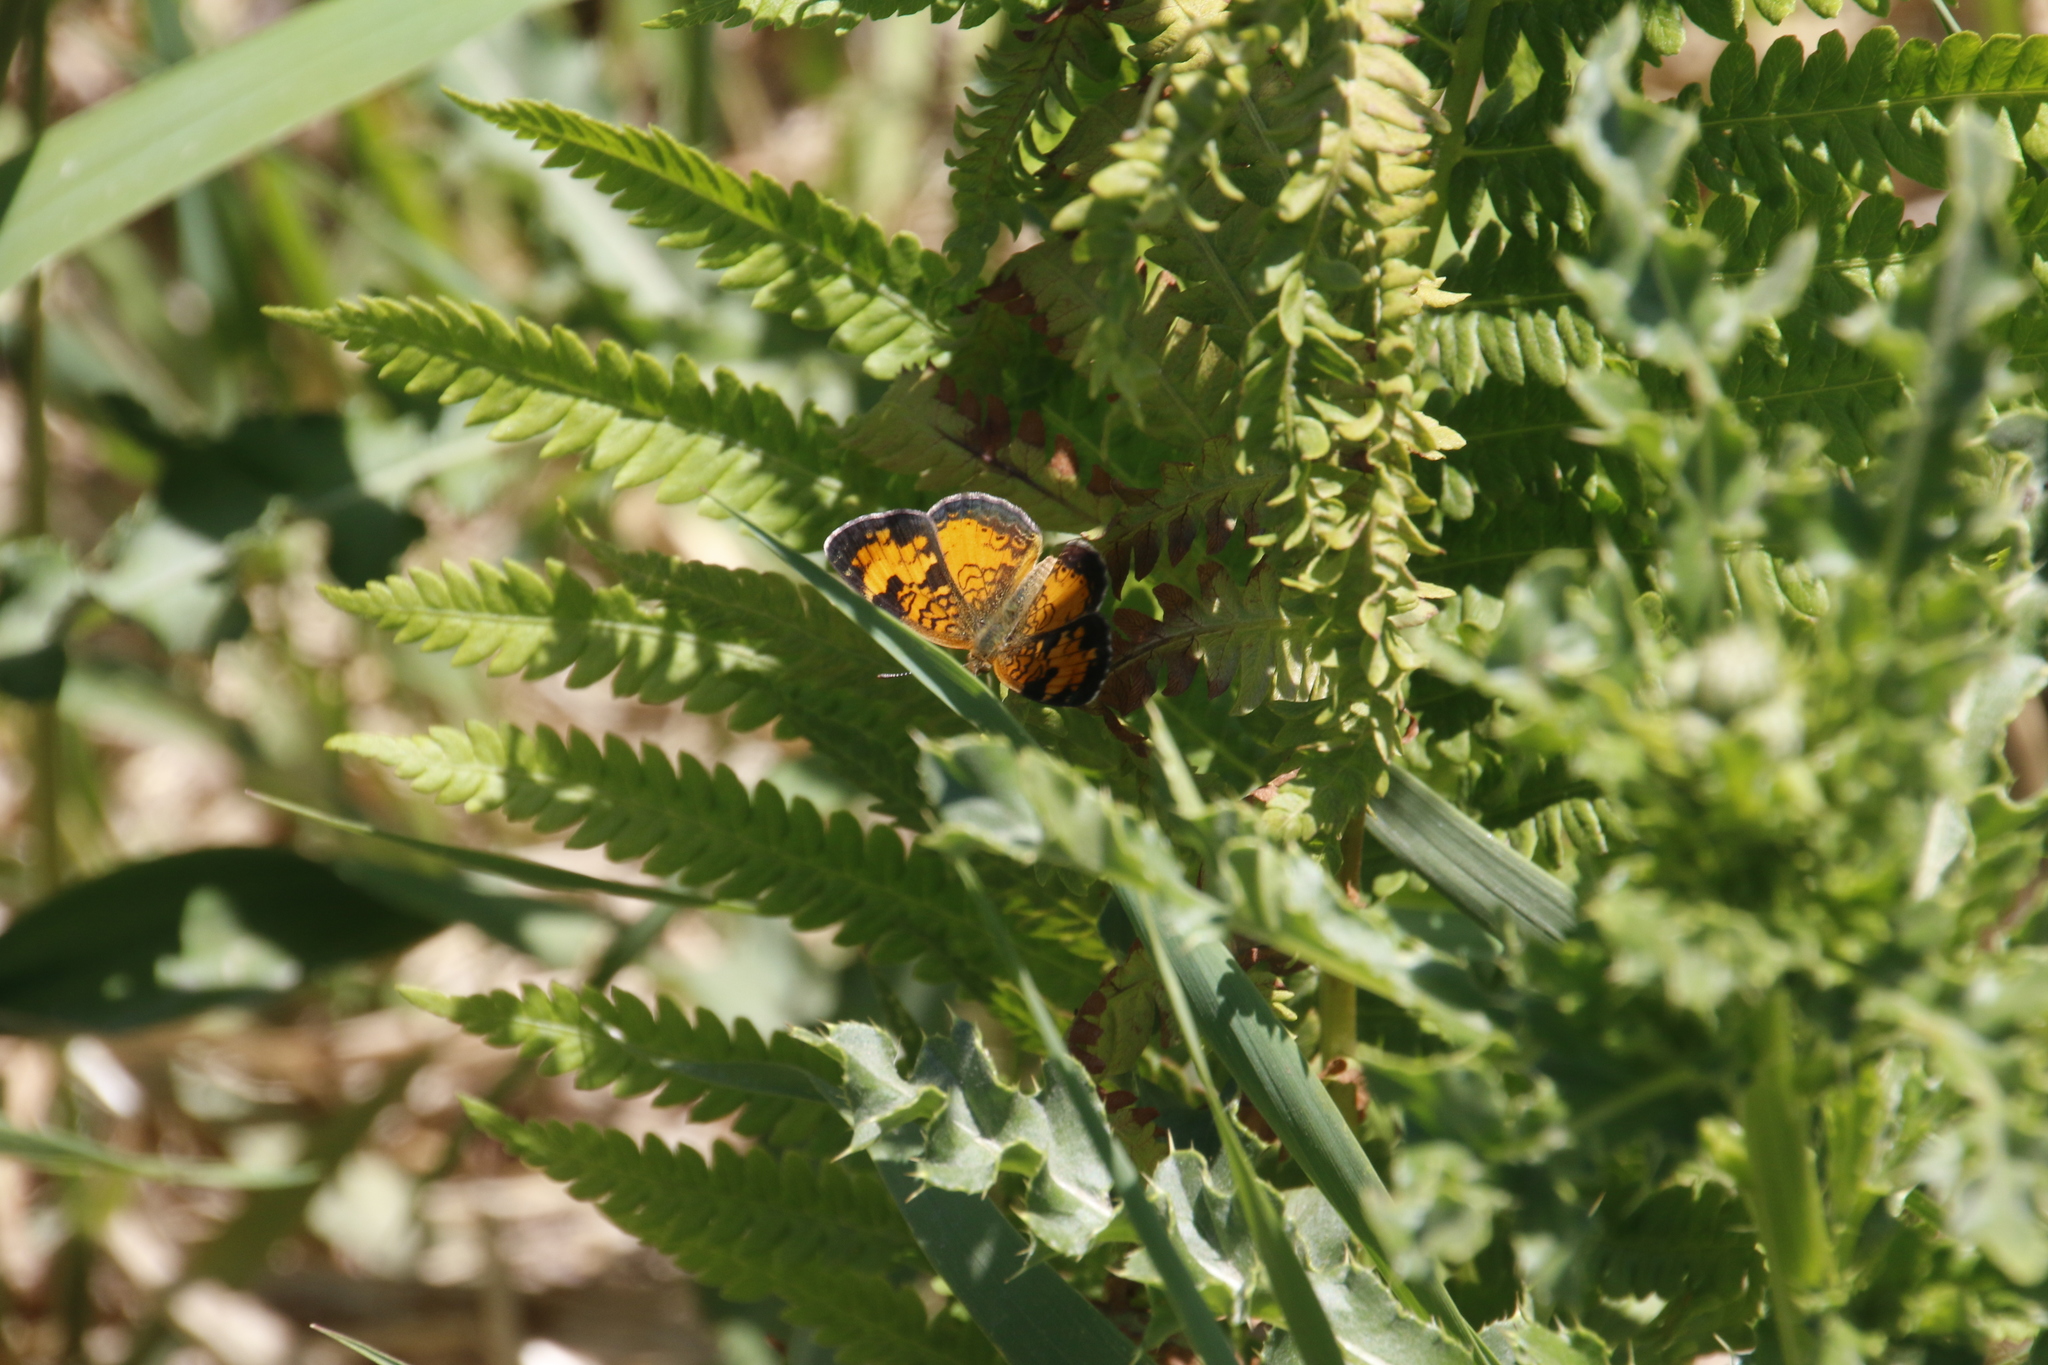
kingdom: Animalia
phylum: Arthropoda
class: Insecta
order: Lepidoptera
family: Nymphalidae
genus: Phyciodes
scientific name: Phyciodes tharos
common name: Pearl crescent
